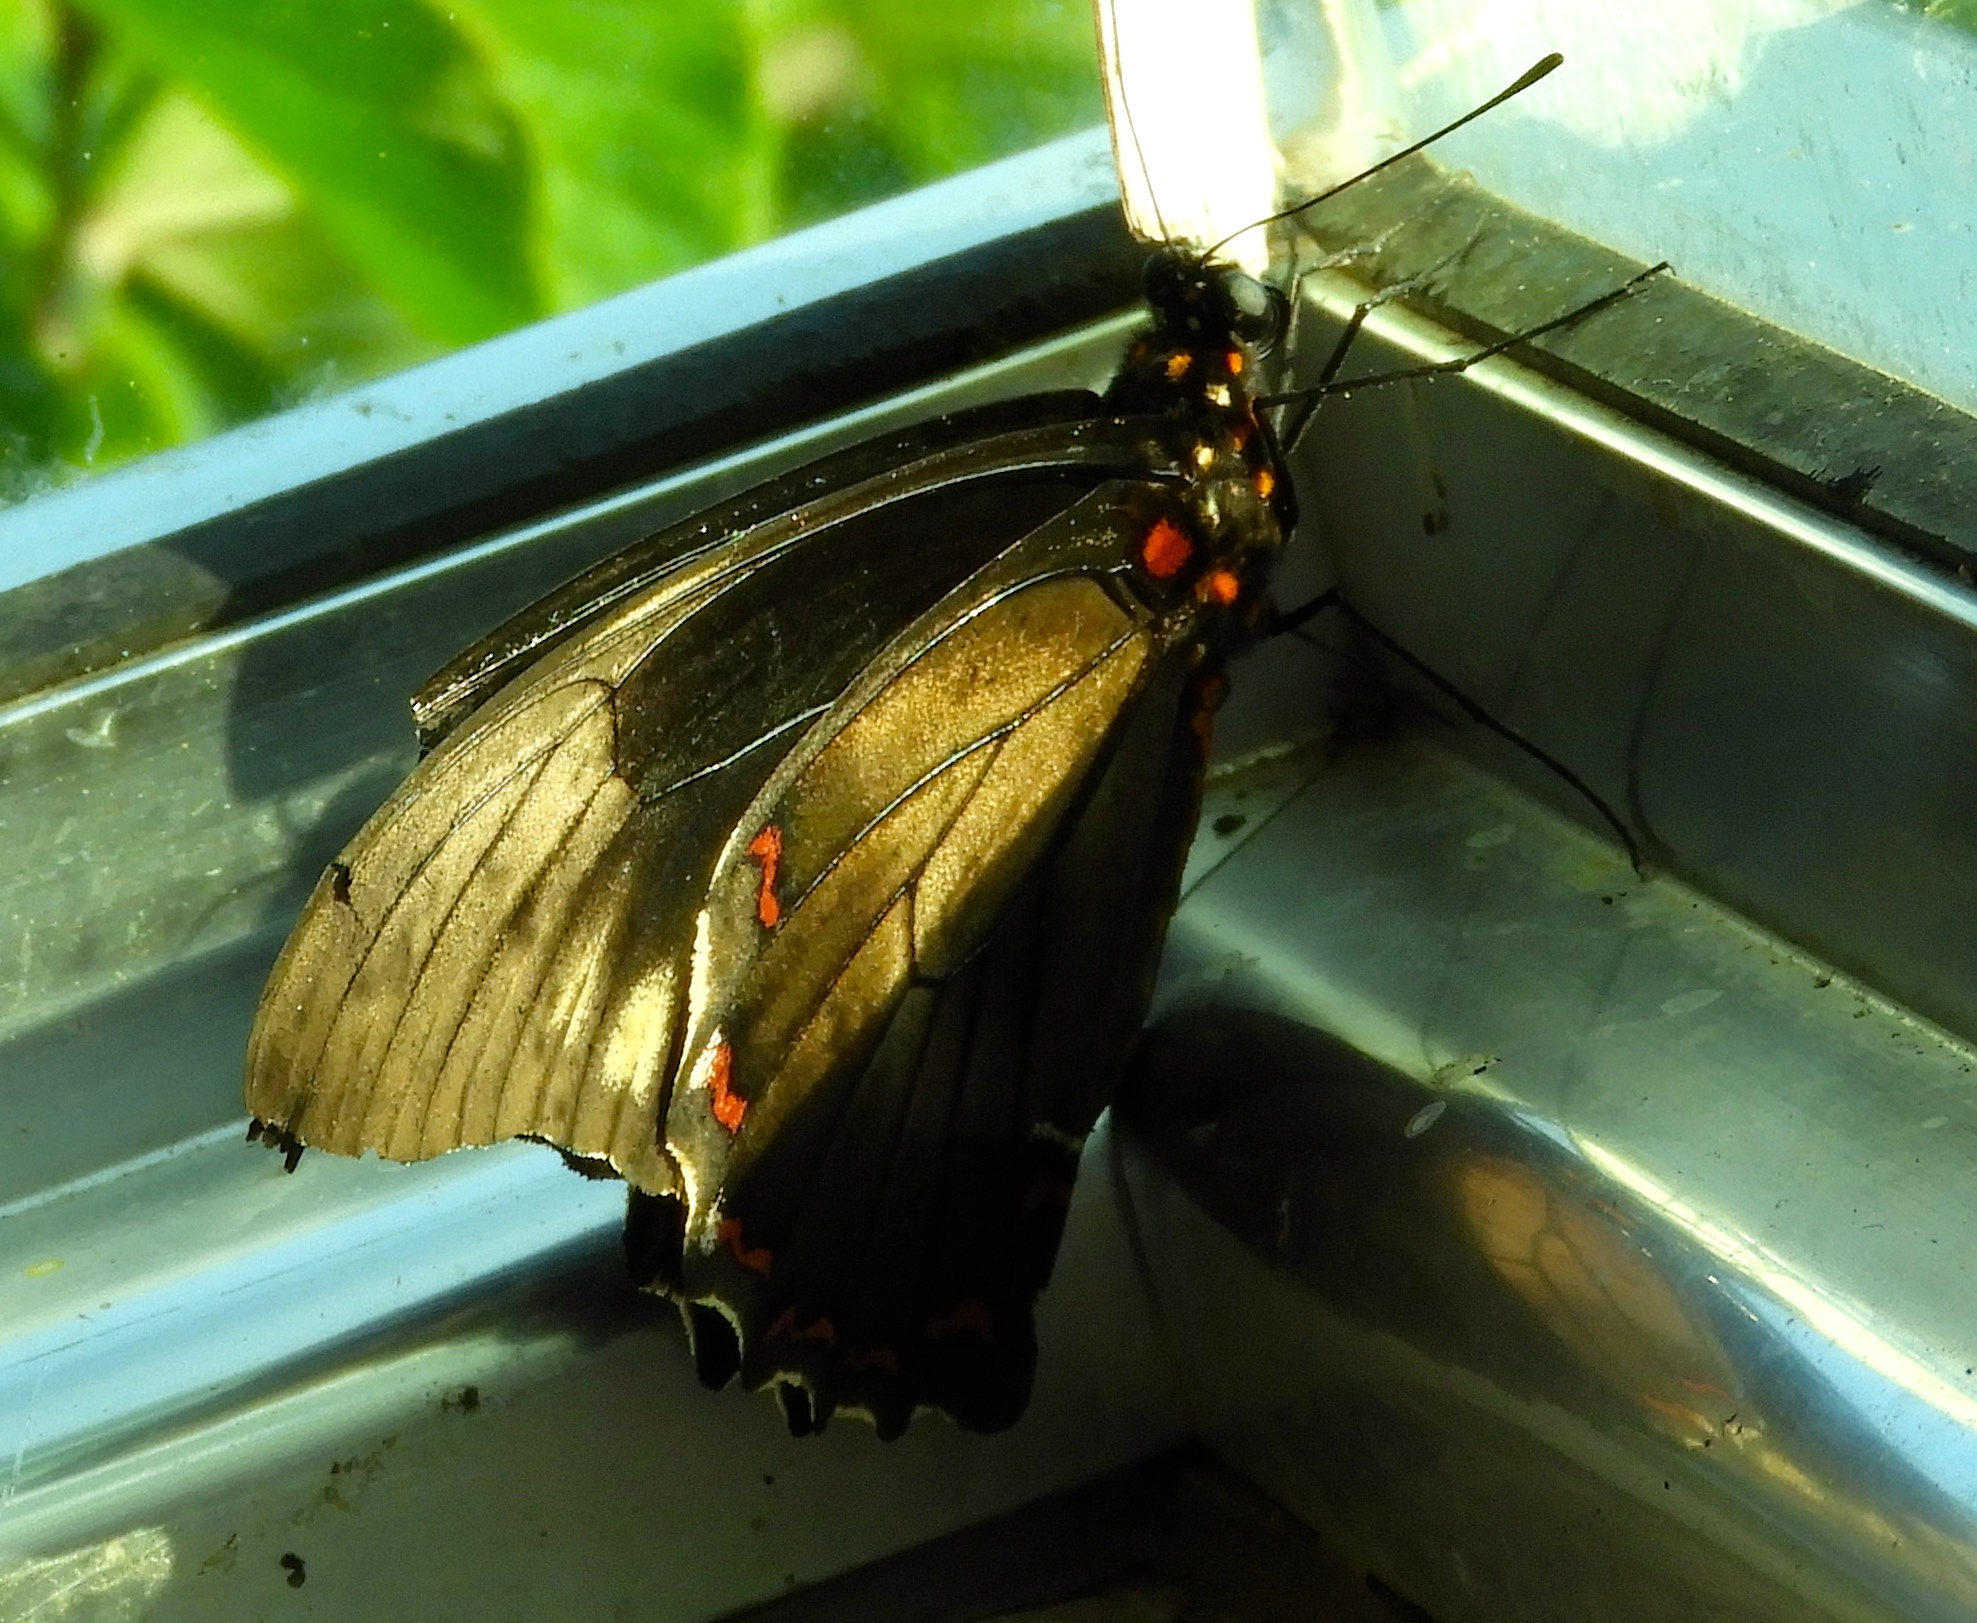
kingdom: Animalia
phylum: Arthropoda
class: Insecta
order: Lepidoptera
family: Papilionidae
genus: Battus
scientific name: Battus polydamas
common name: Polydamas swallowtail
